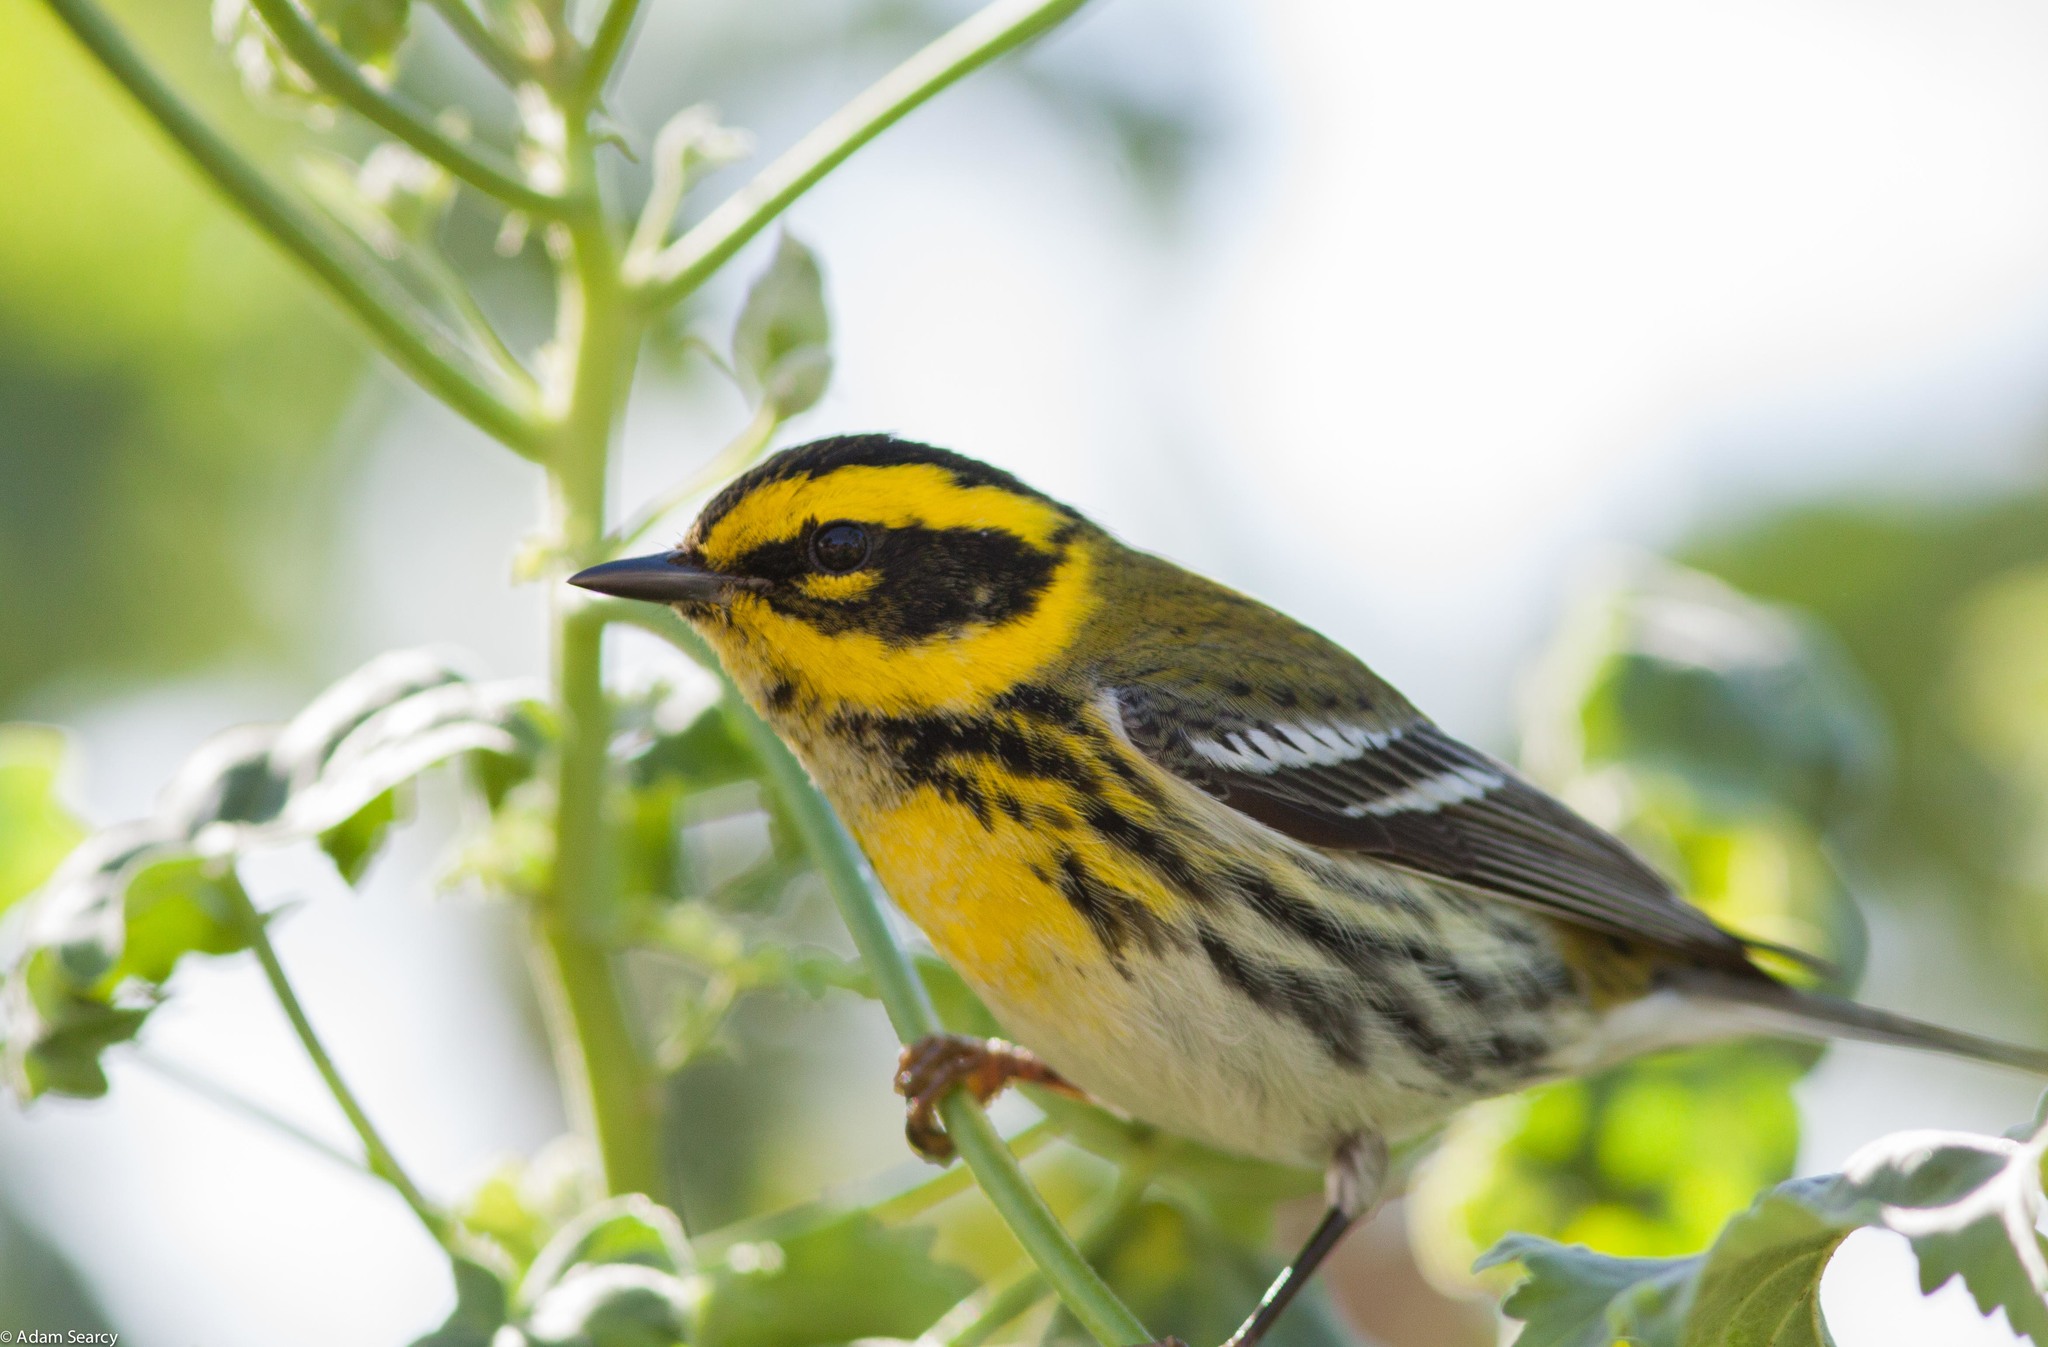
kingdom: Animalia
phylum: Chordata
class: Aves
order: Passeriformes
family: Parulidae
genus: Setophaga
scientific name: Setophaga townsendi
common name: Townsend's warbler
